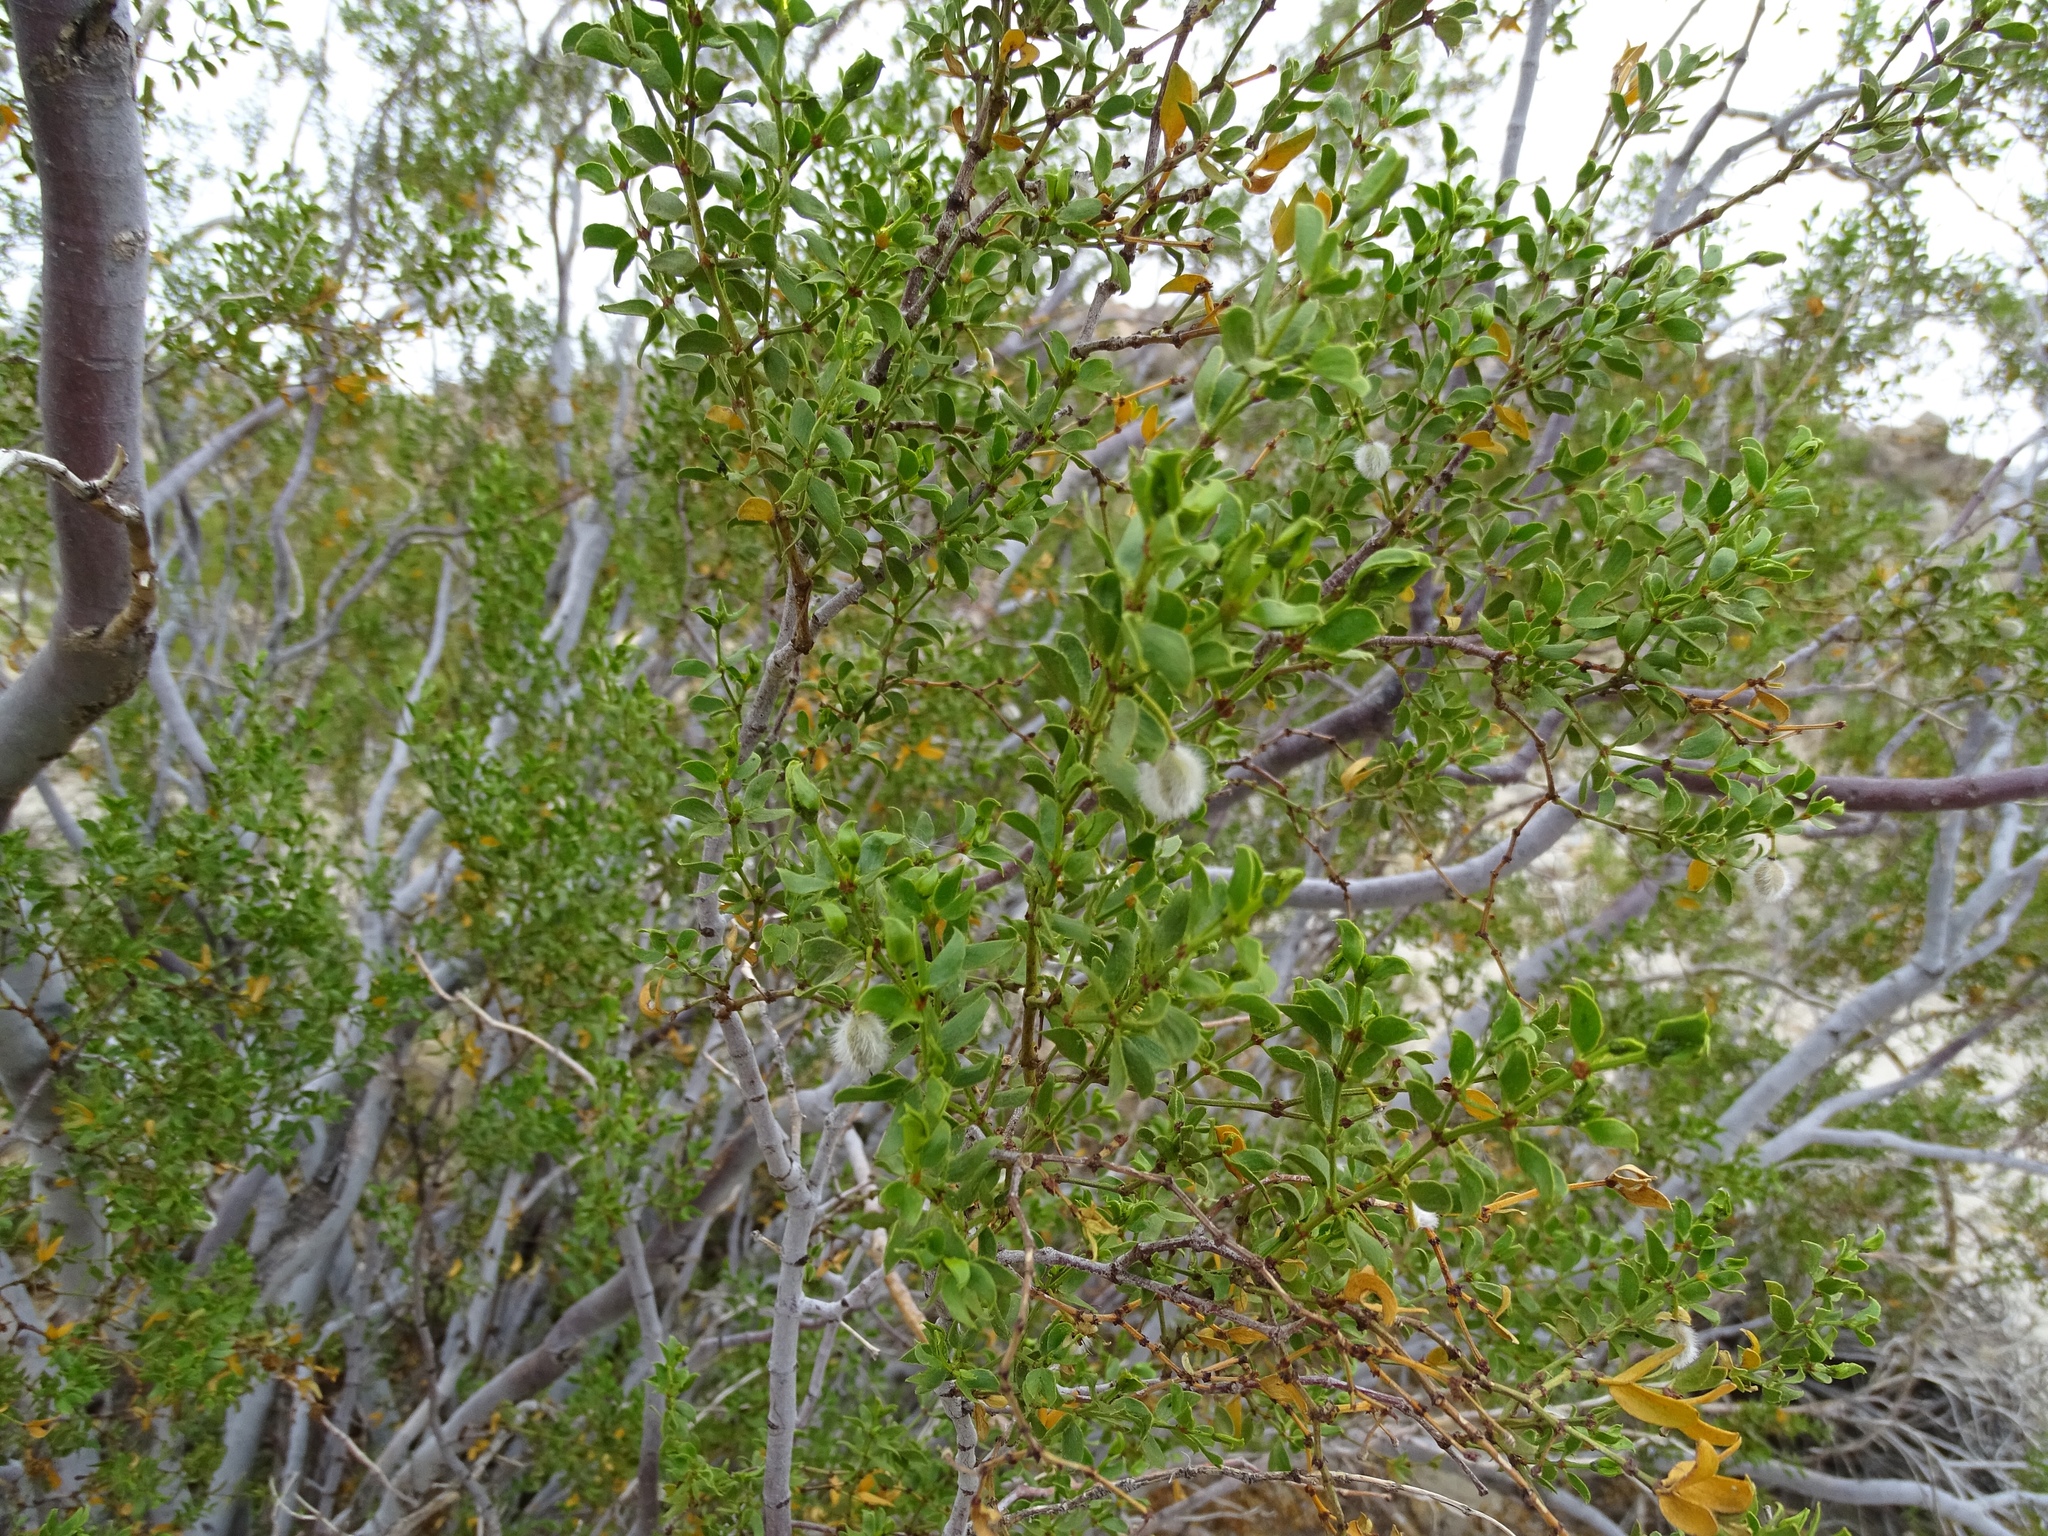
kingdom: Plantae
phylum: Tracheophyta
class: Magnoliopsida
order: Zygophyllales
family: Zygophyllaceae
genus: Larrea
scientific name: Larrea tridentata
